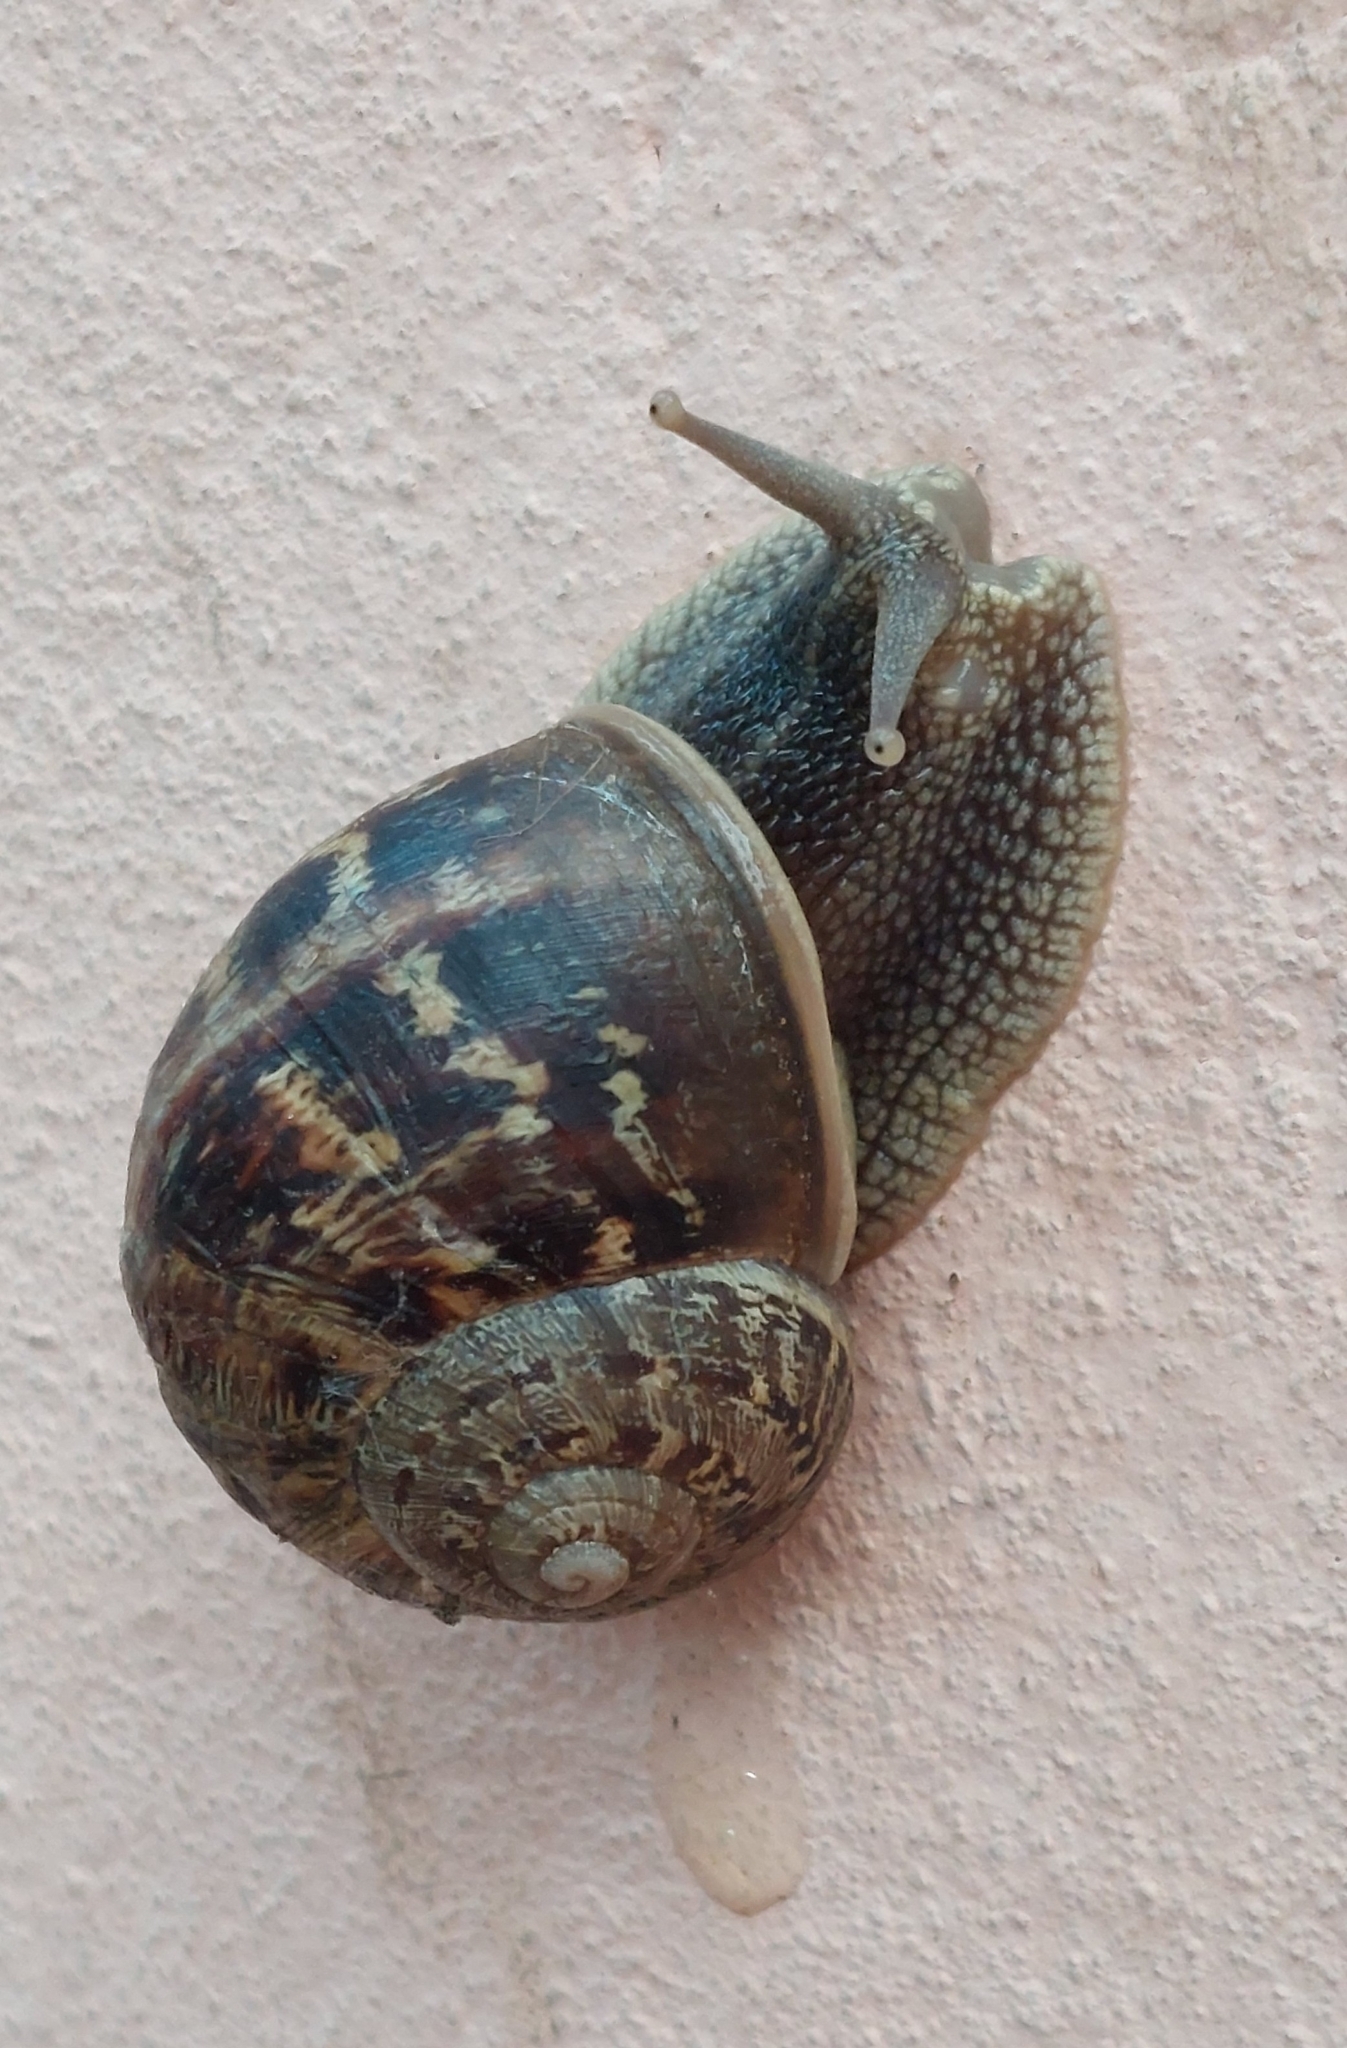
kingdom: Animalia
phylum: Mollusca
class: Gastropoda
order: Stylommatophora
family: Helicidae
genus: Cornu
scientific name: Cornu aspersum
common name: Brown garden snail
